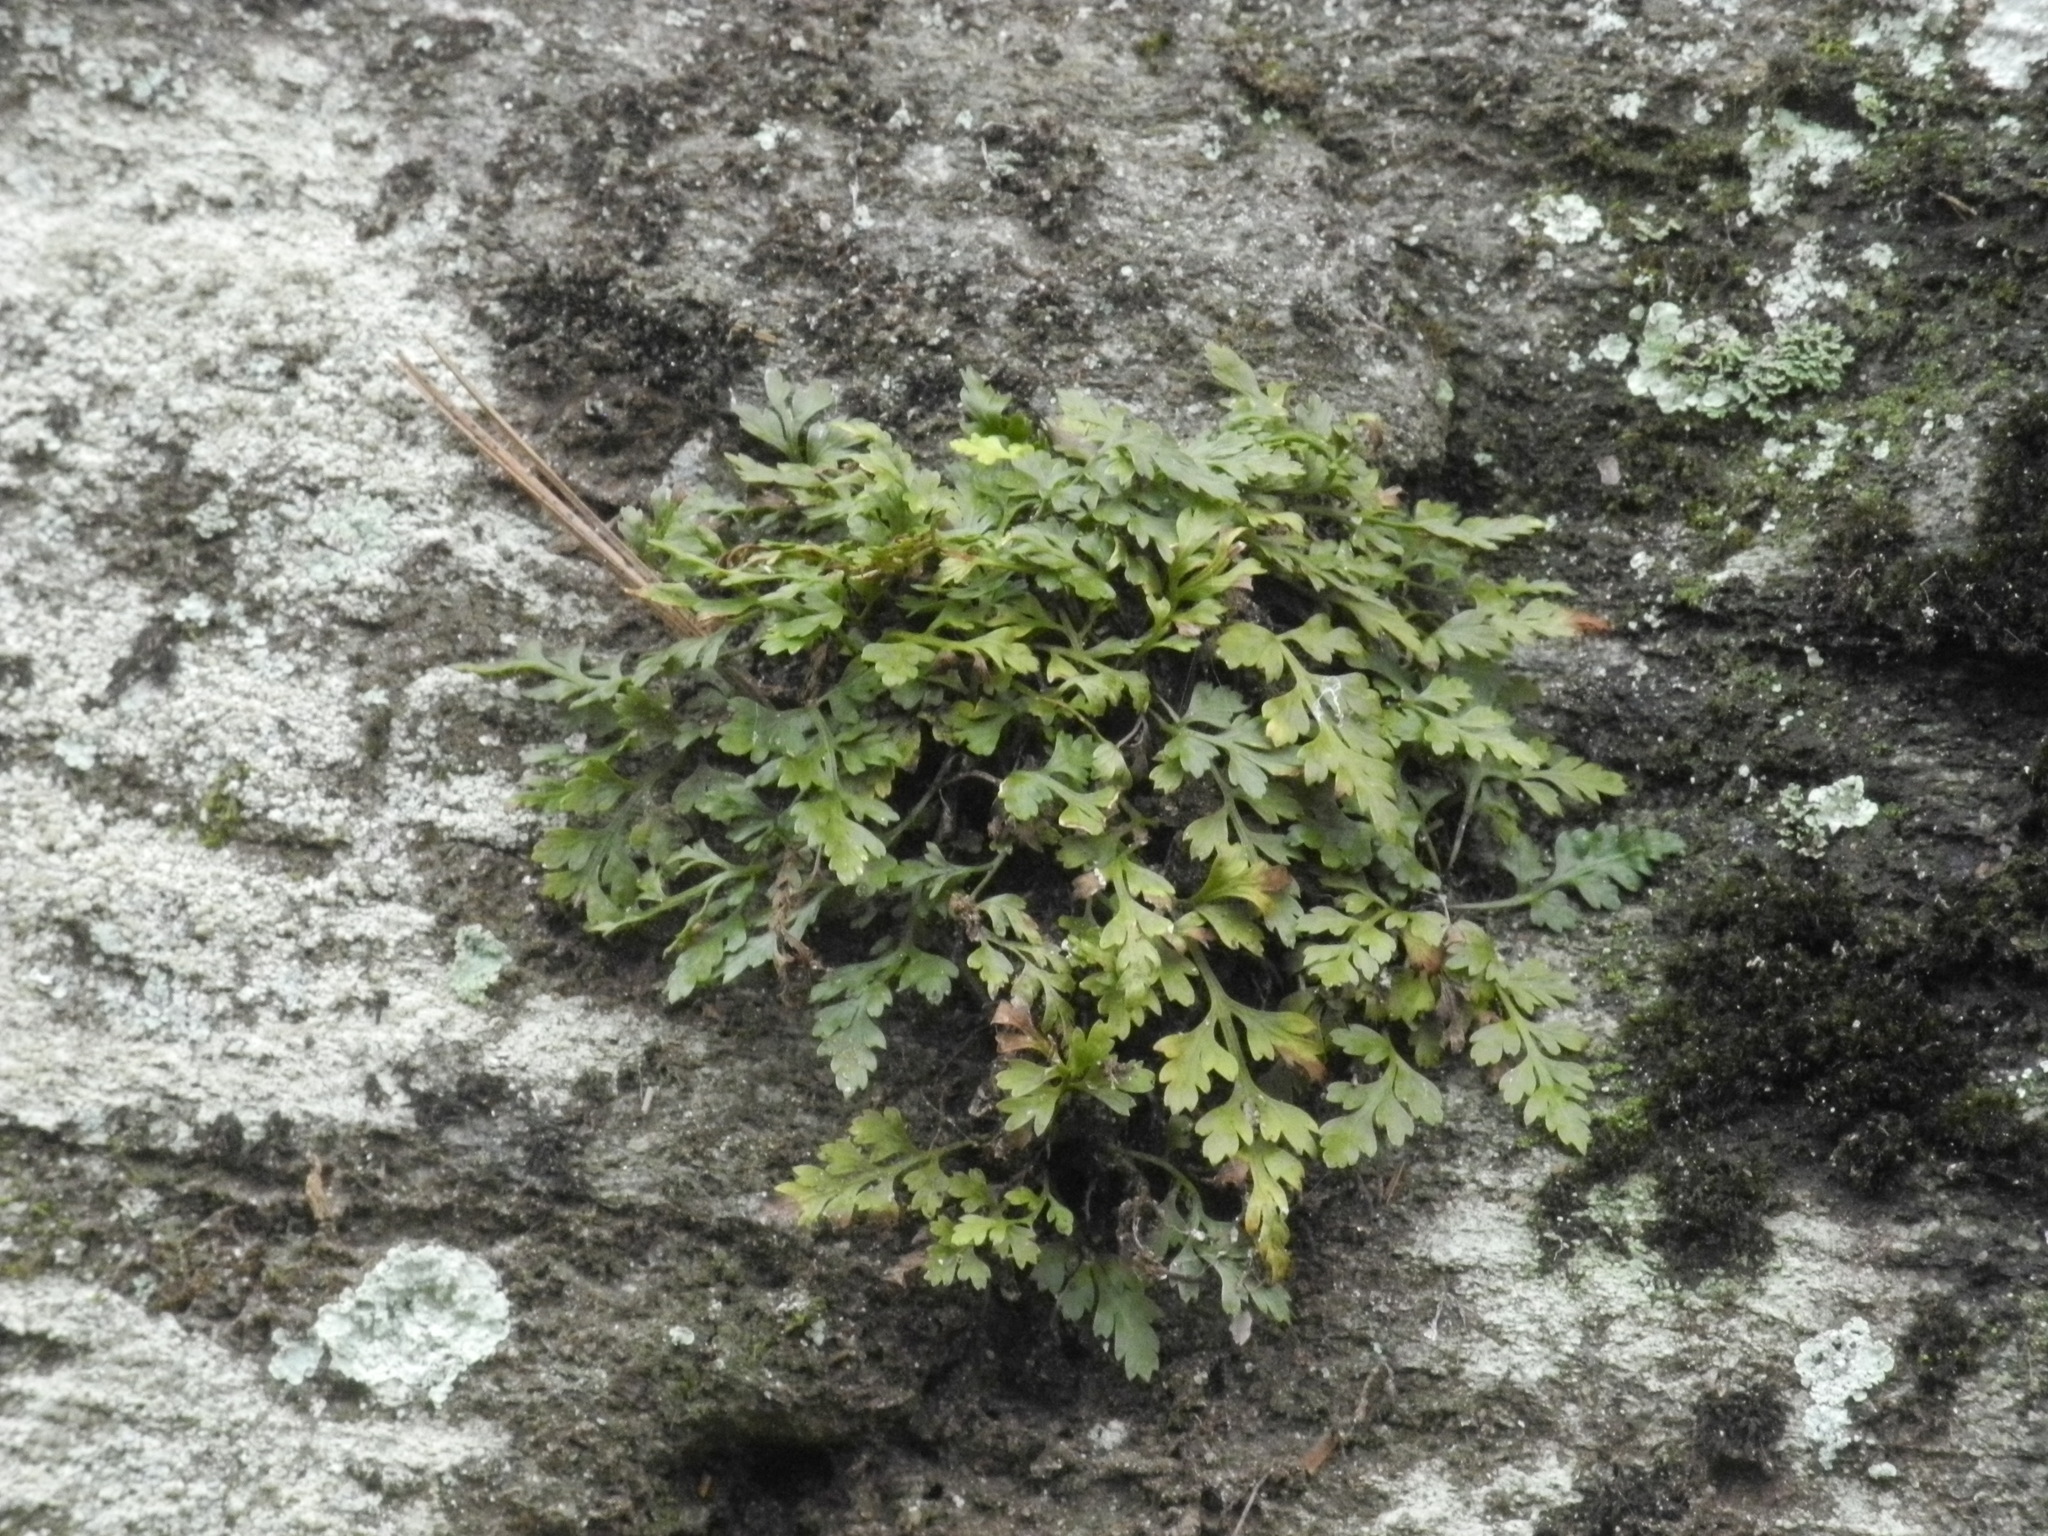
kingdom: Plantae
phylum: Tracheophyta
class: Polypodiopsida
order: Polypodiales
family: Aspleniaceae
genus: Asplenium
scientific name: Asplenium montanum
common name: Mountain spleenwort
